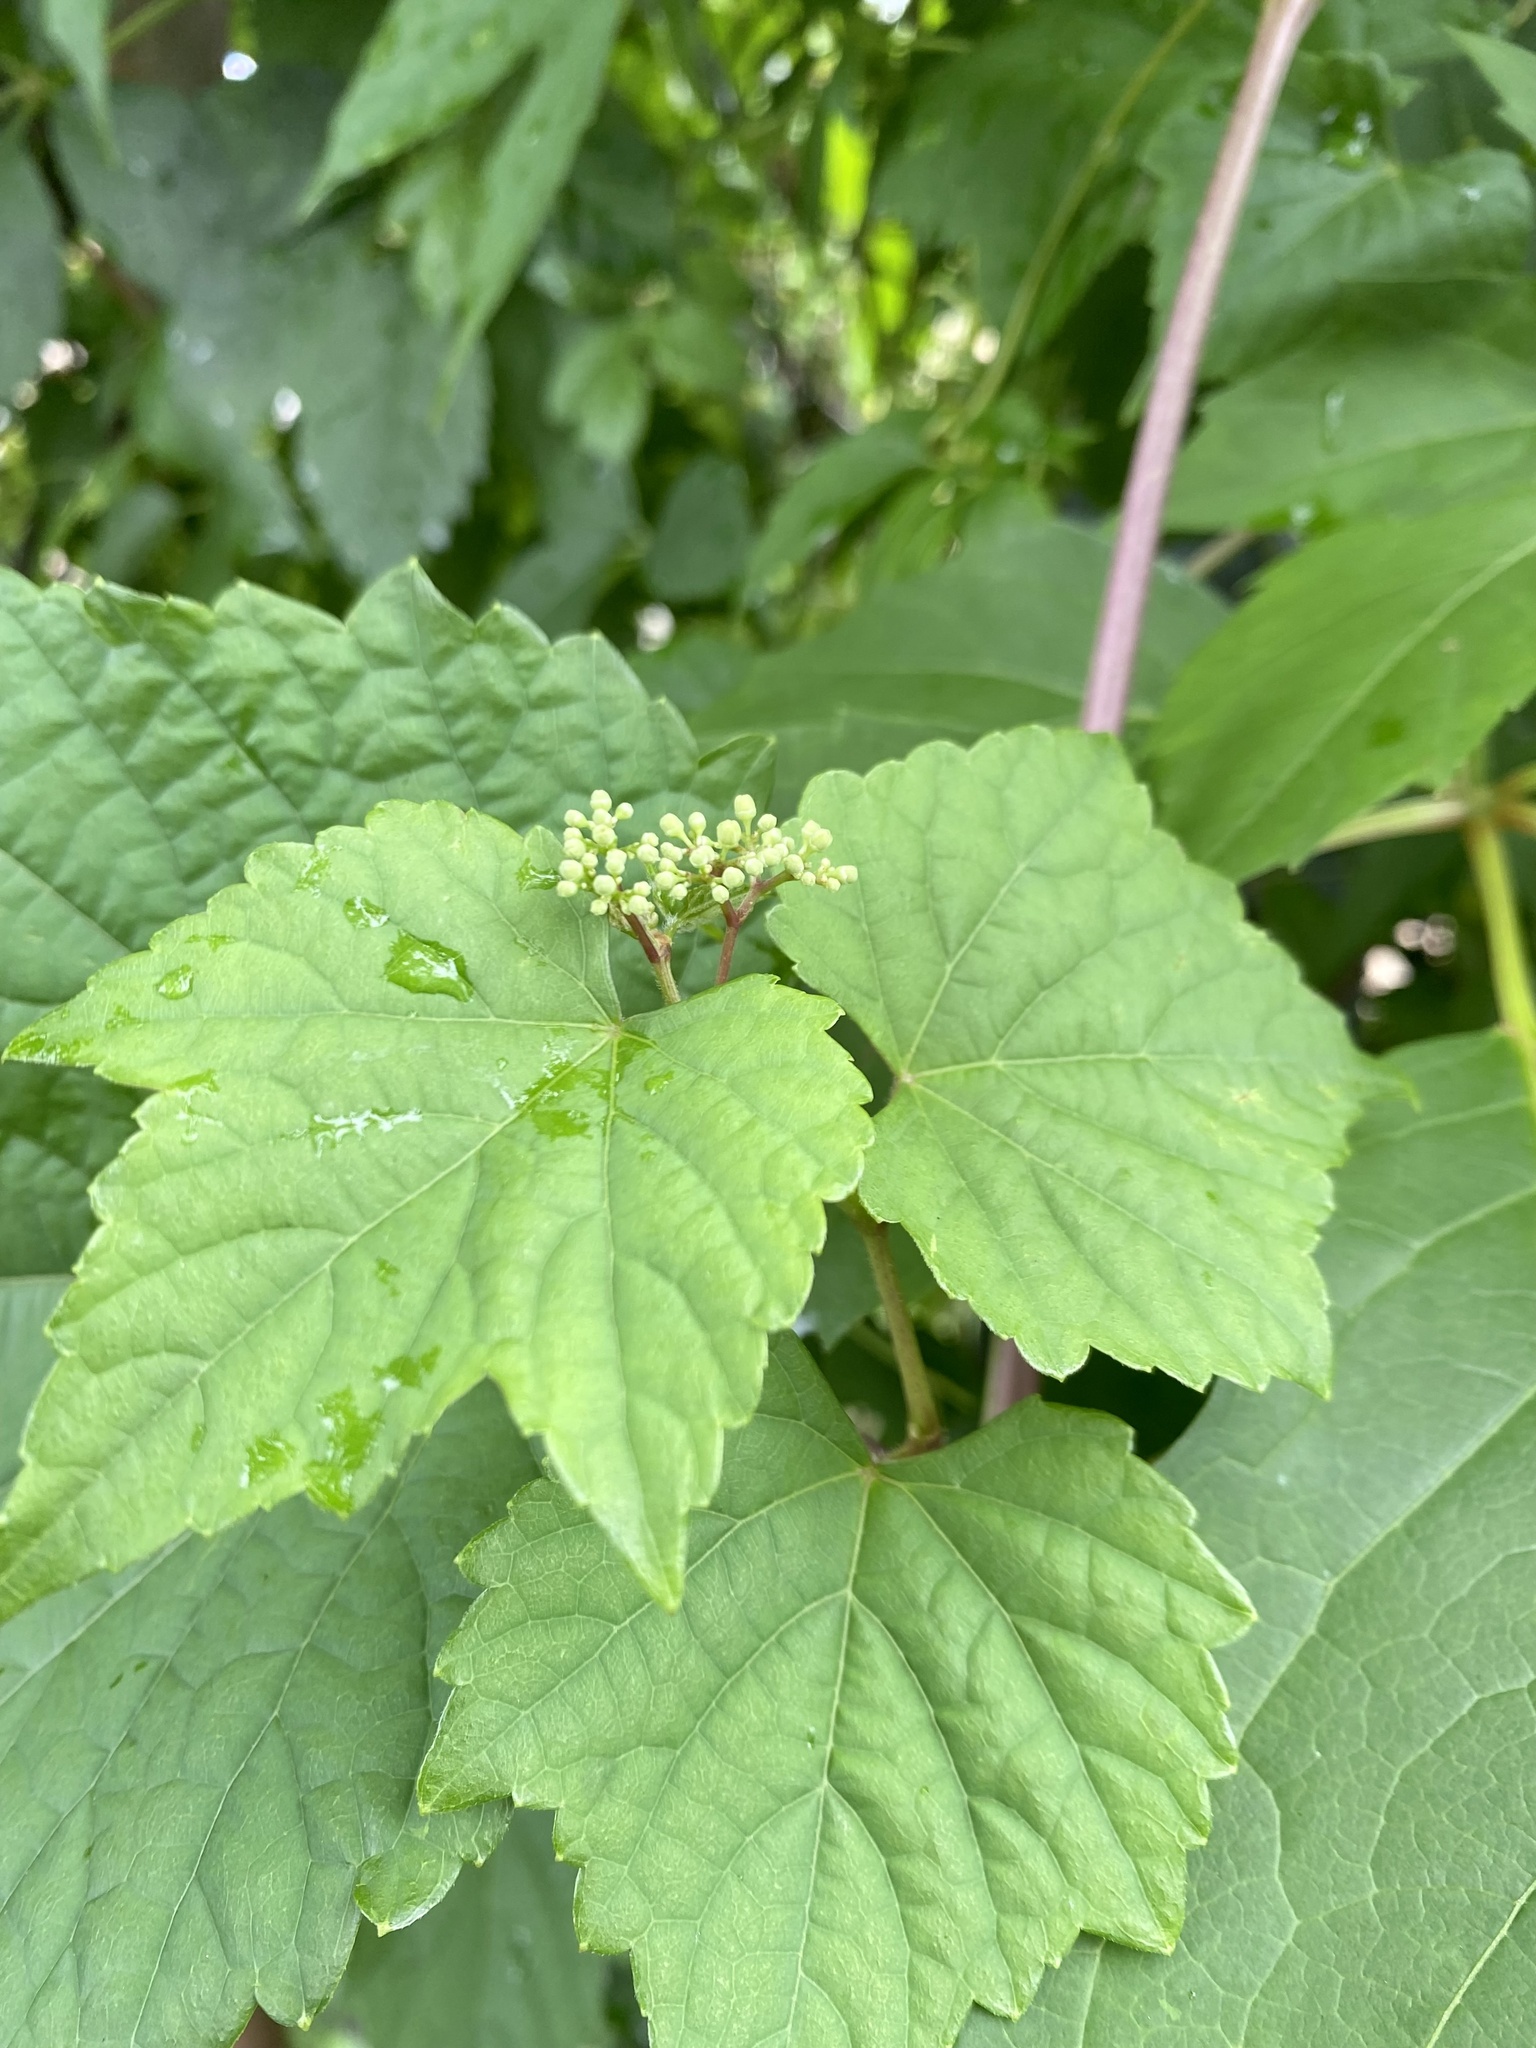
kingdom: Plantae
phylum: Tracheophyta
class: Magnoliopsida
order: Vitales
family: Vitaceae
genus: Ampelopsis
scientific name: Ampelopsis glandulosa
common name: Amur peppervine
